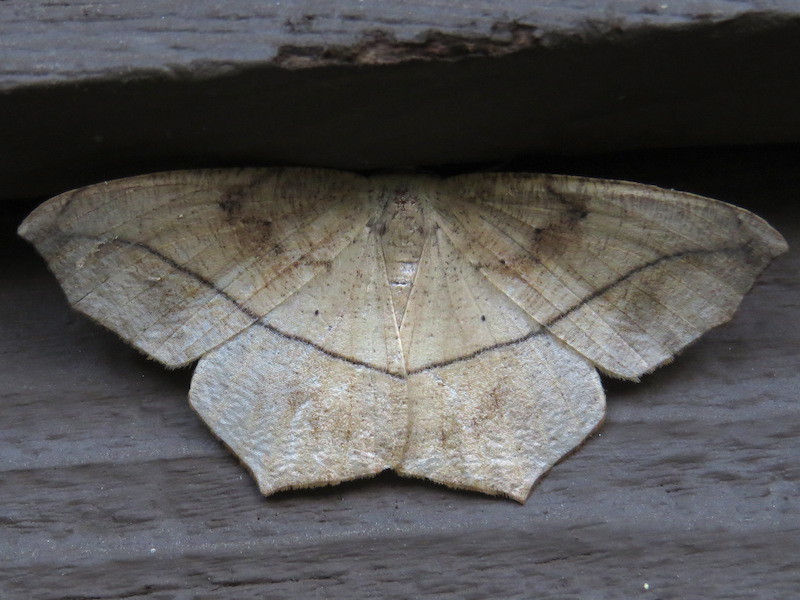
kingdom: Animalia
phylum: Arthropoda
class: Insecta
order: Lepidoptera
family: Geometridae
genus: Prochoerodes
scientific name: Prochoerodes lineola
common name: Large maple spanworm
